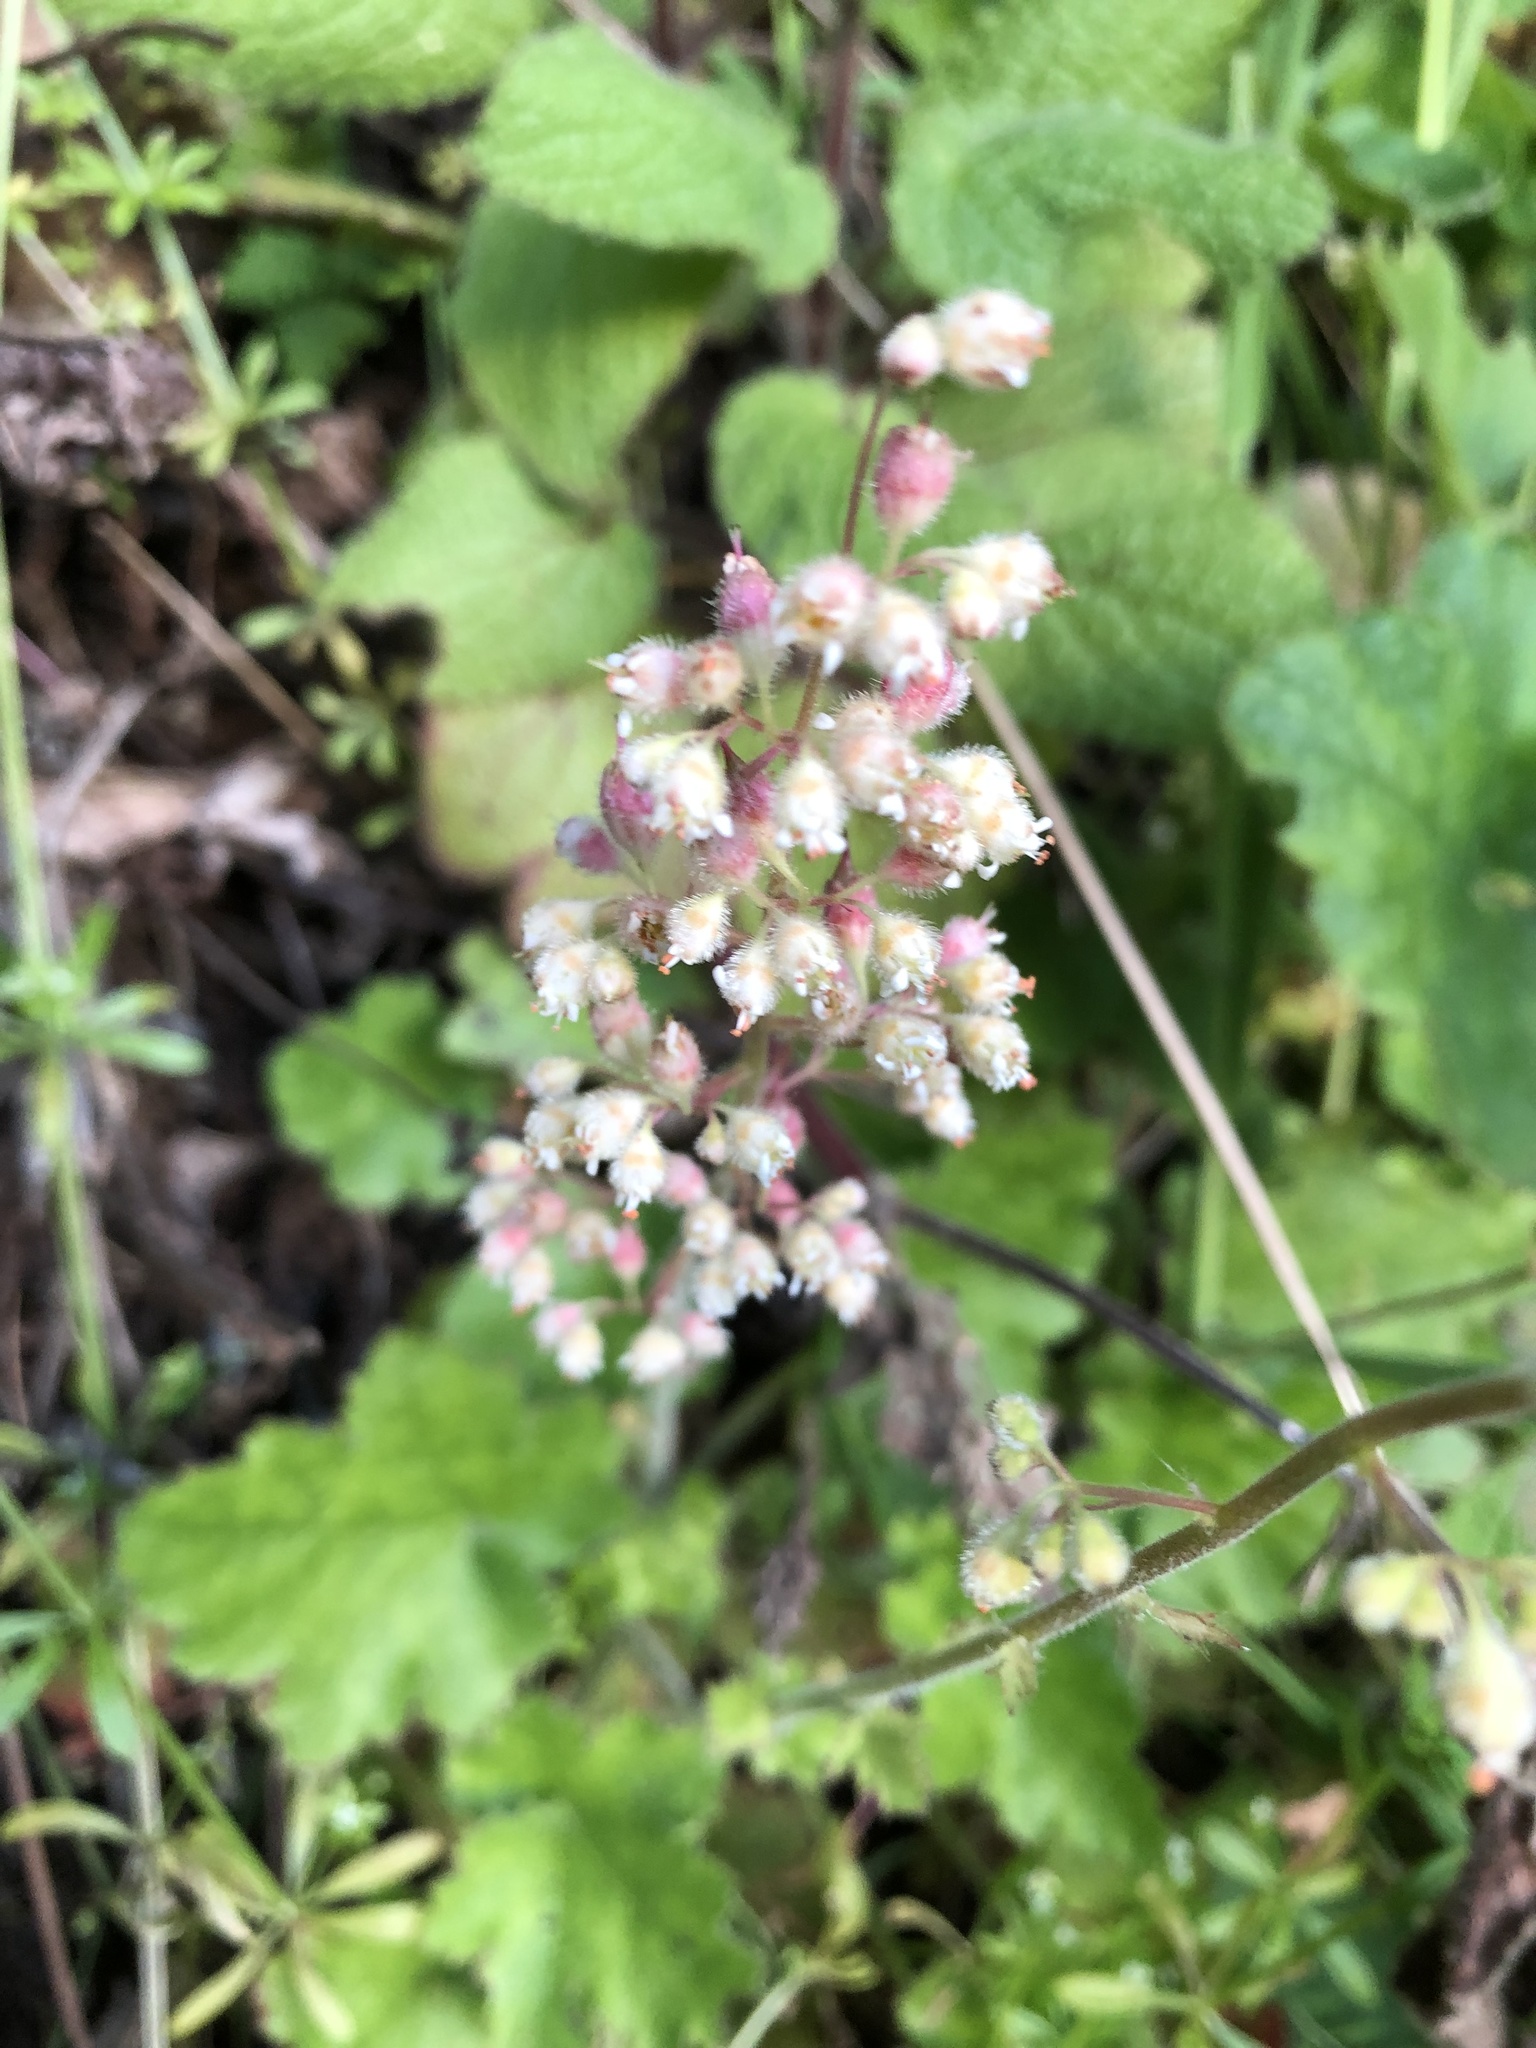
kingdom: Plantae
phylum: Tracheophyta
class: Magnoliopsida
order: Saxifragales
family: Saxifragaceae
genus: Heuchera
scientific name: Heuchera micrantha
